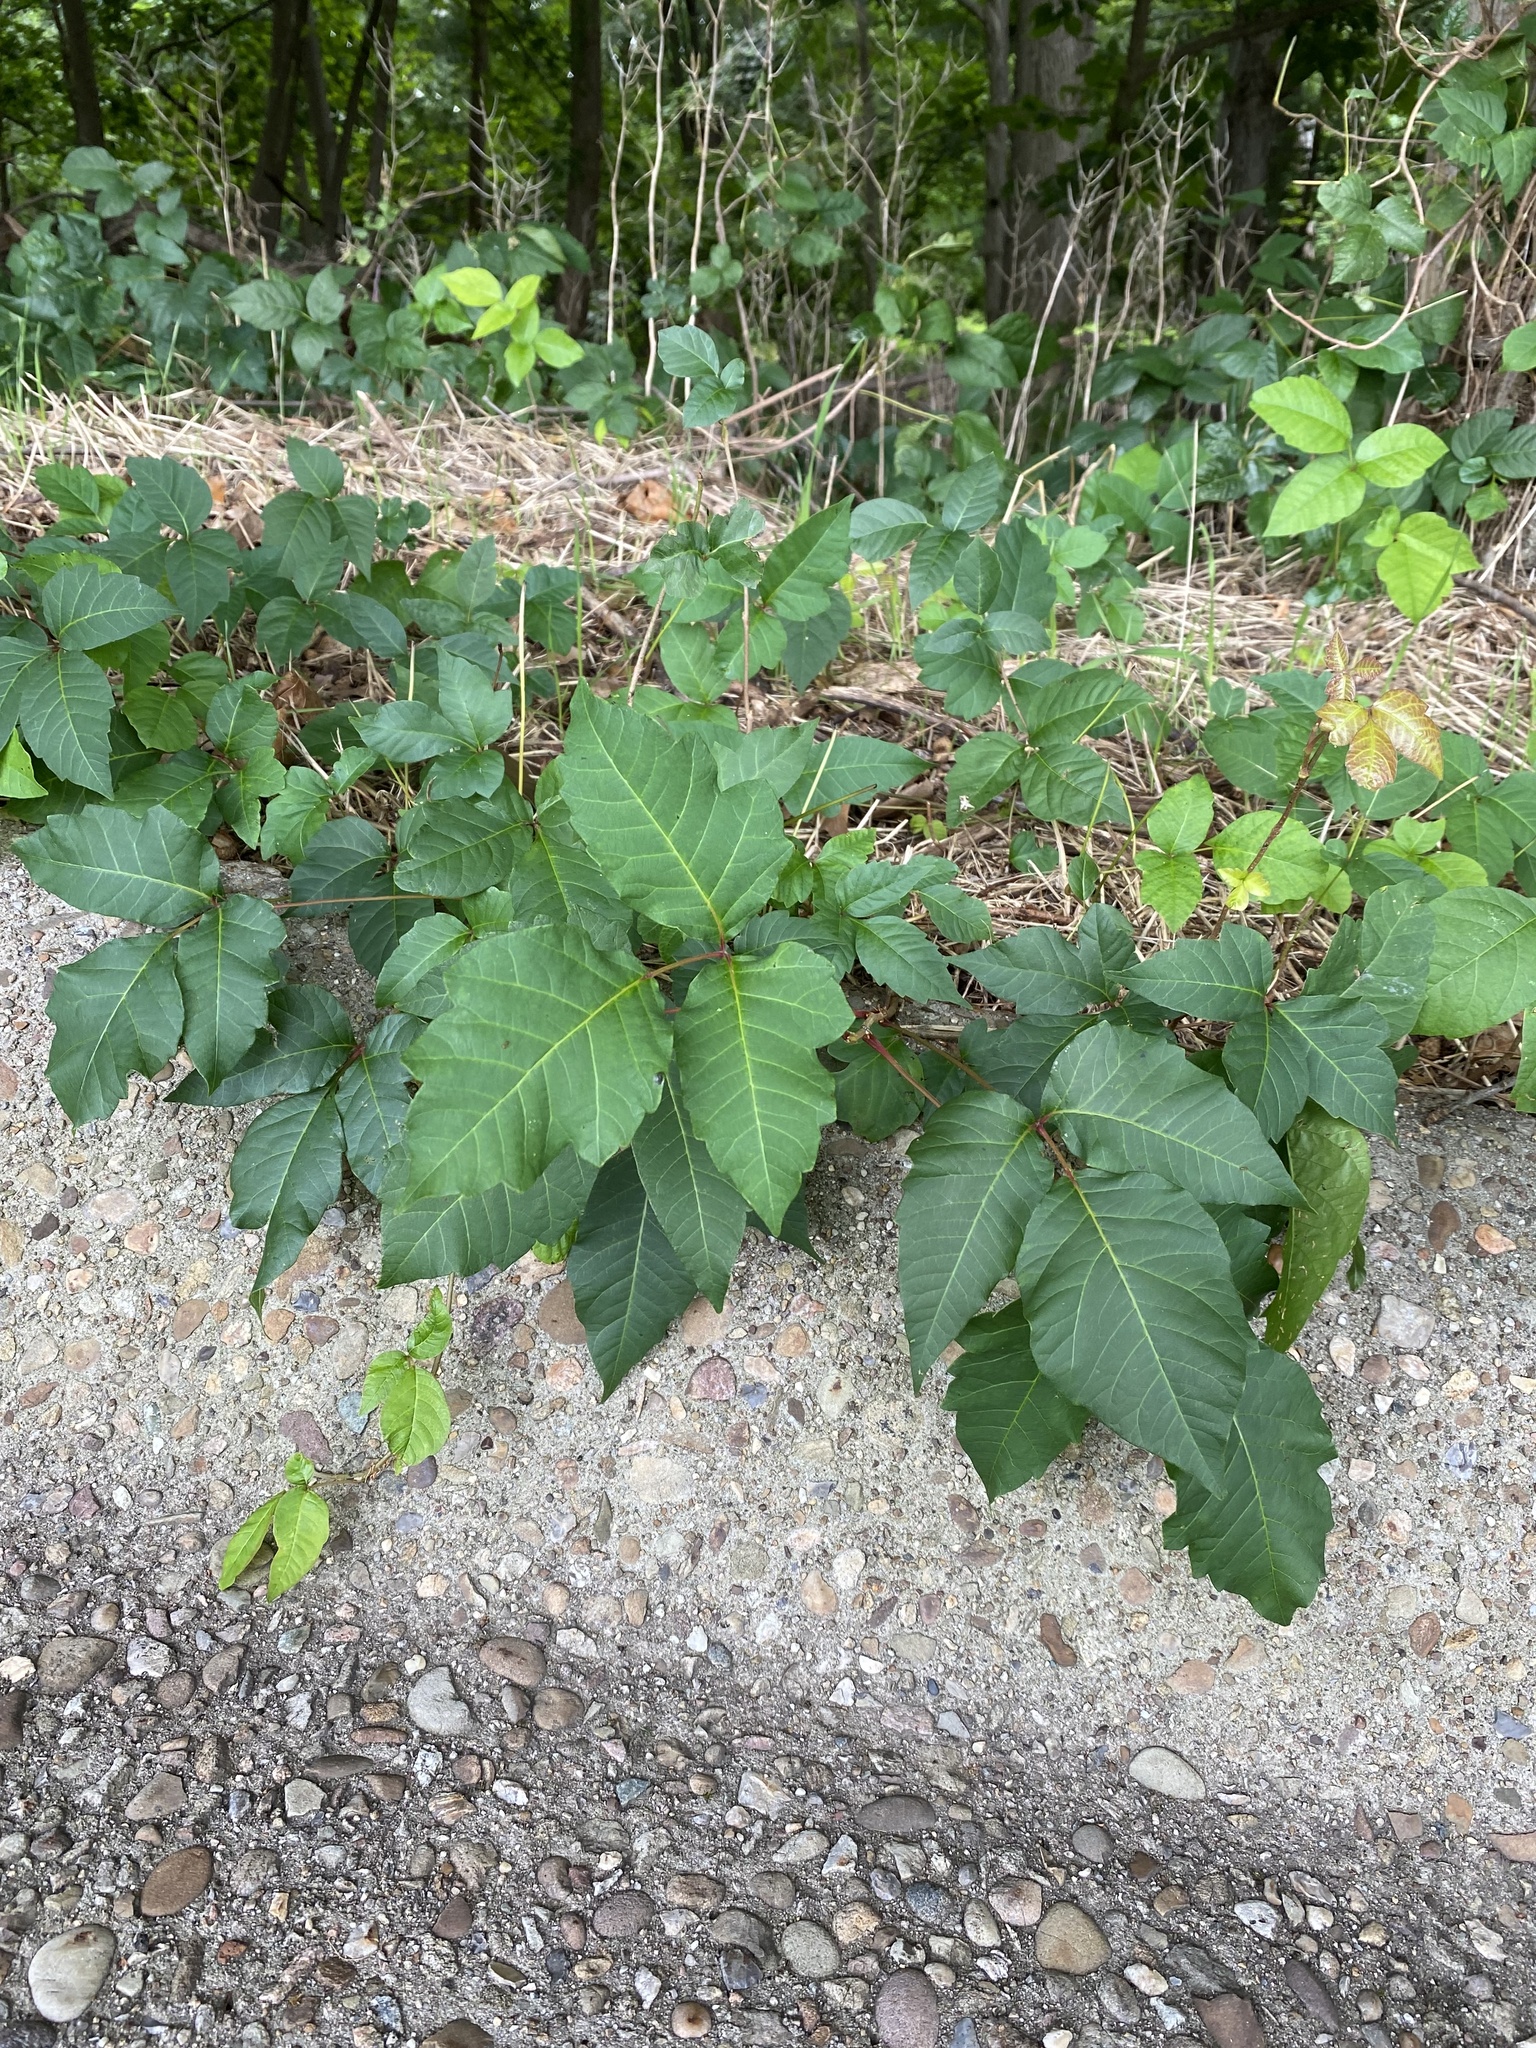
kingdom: Plantae
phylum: Tracheophyta
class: Magnoliopsida
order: Sapindales
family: Anacardiaceae
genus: Toxicodendron
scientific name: Toxicodendron radicans
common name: Poison ivy
